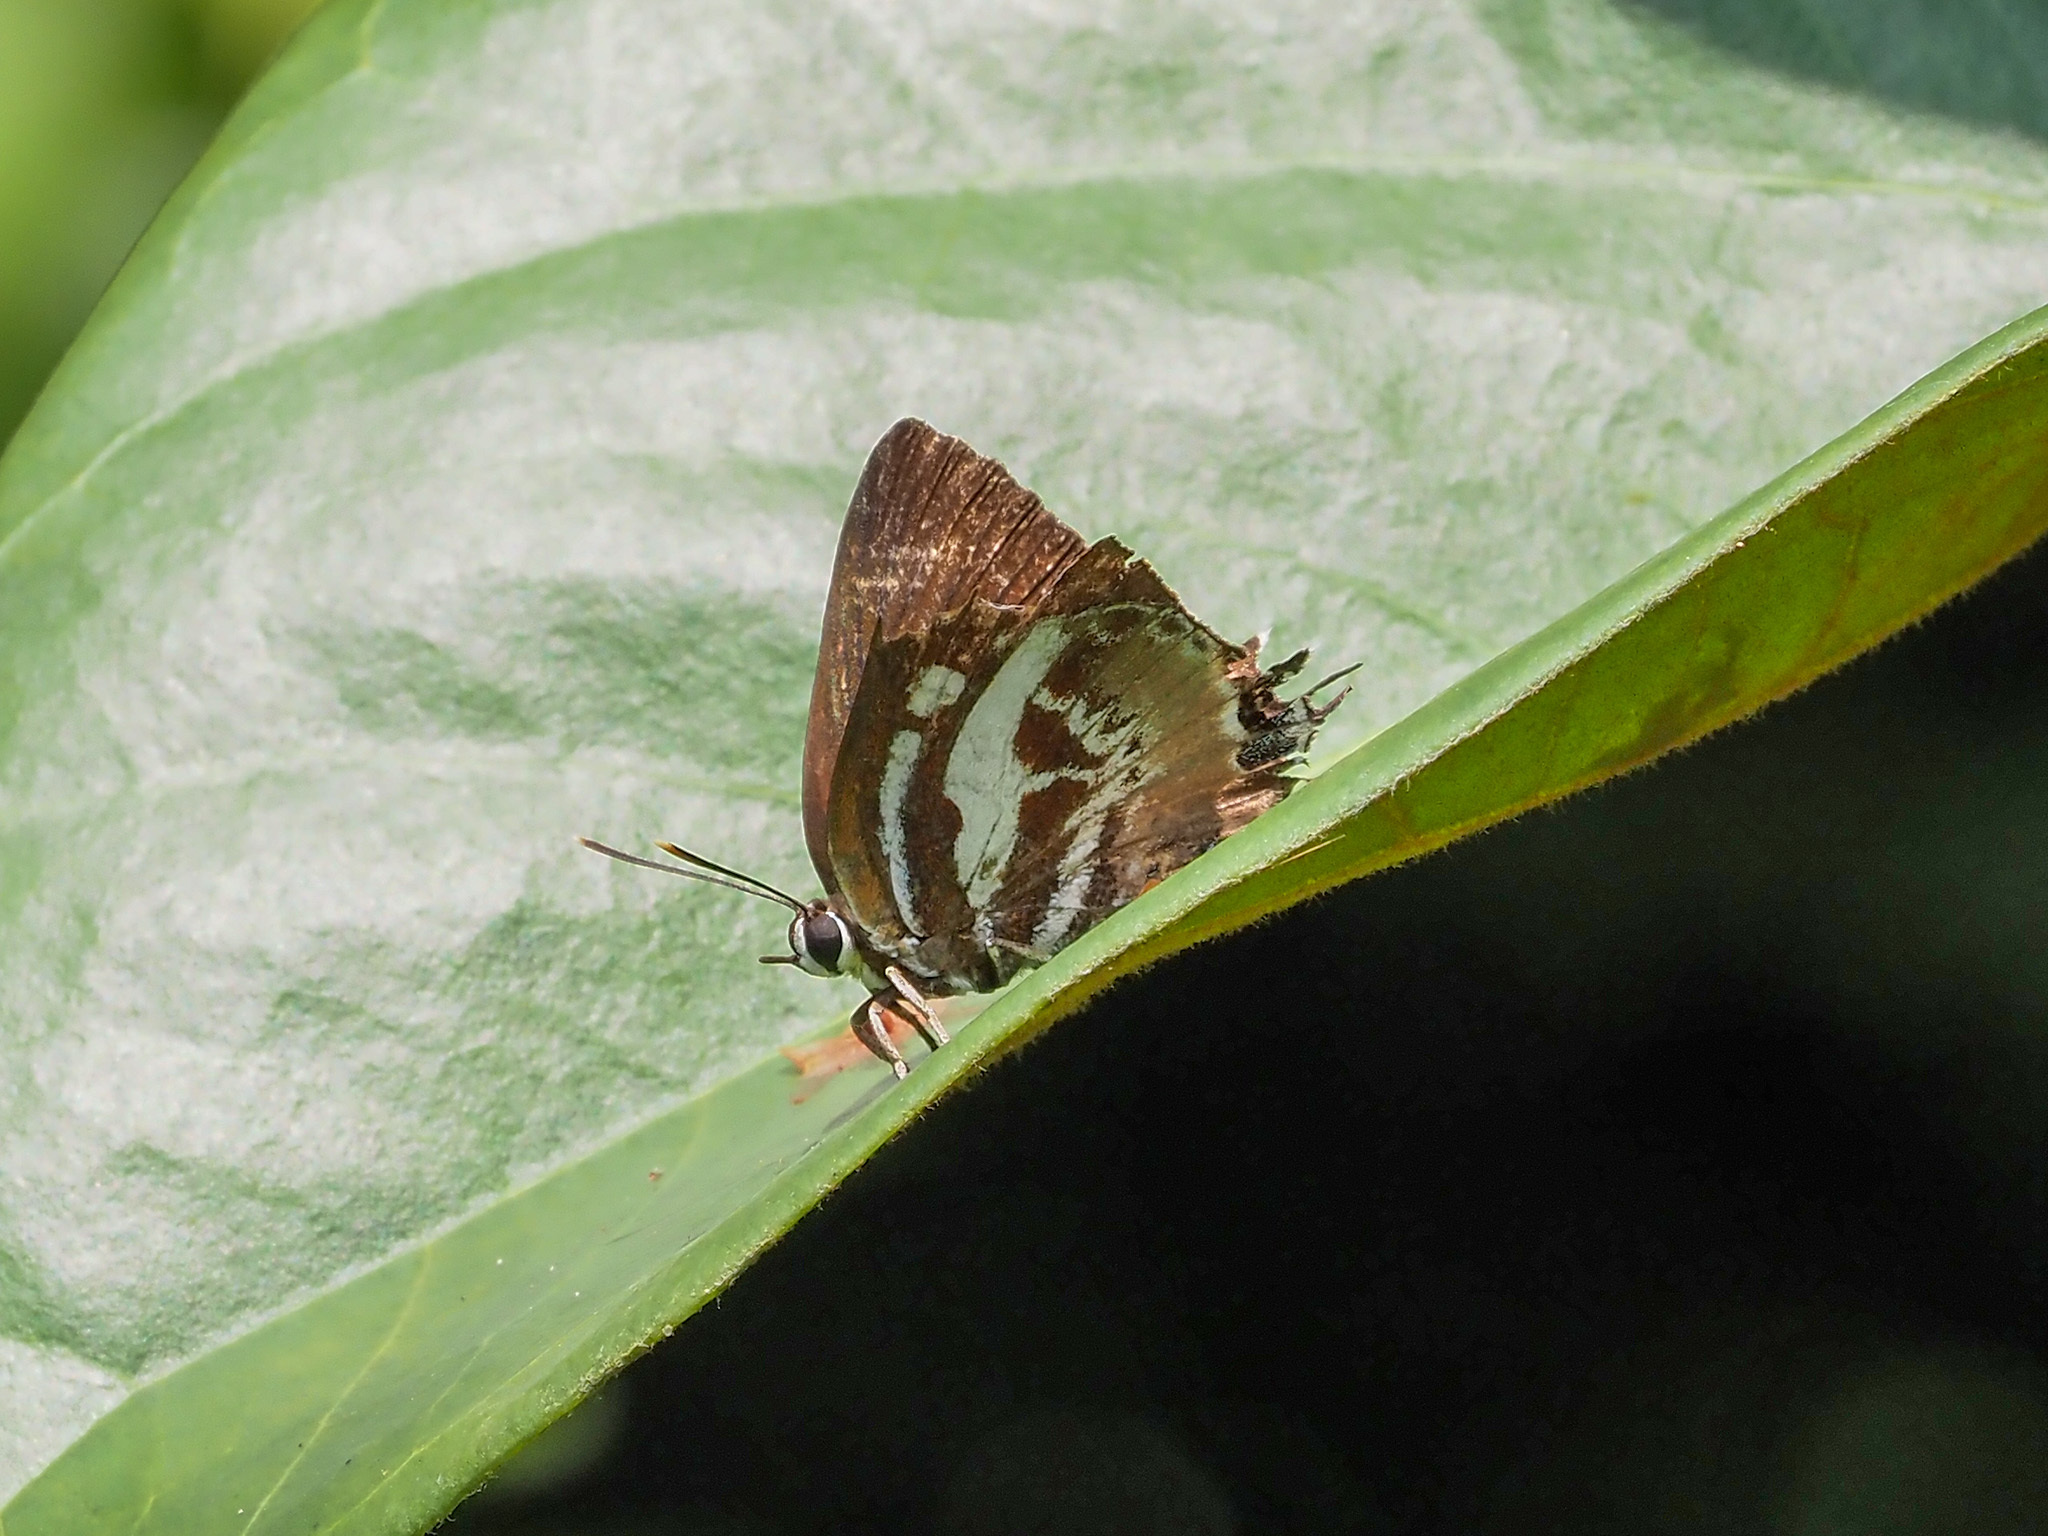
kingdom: Animalia
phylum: Arthropoda
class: Insecta
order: Lepidoptera
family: Lycaenidae
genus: Iraota
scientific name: Iraota rochana
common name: Scarce silverstreak blue
